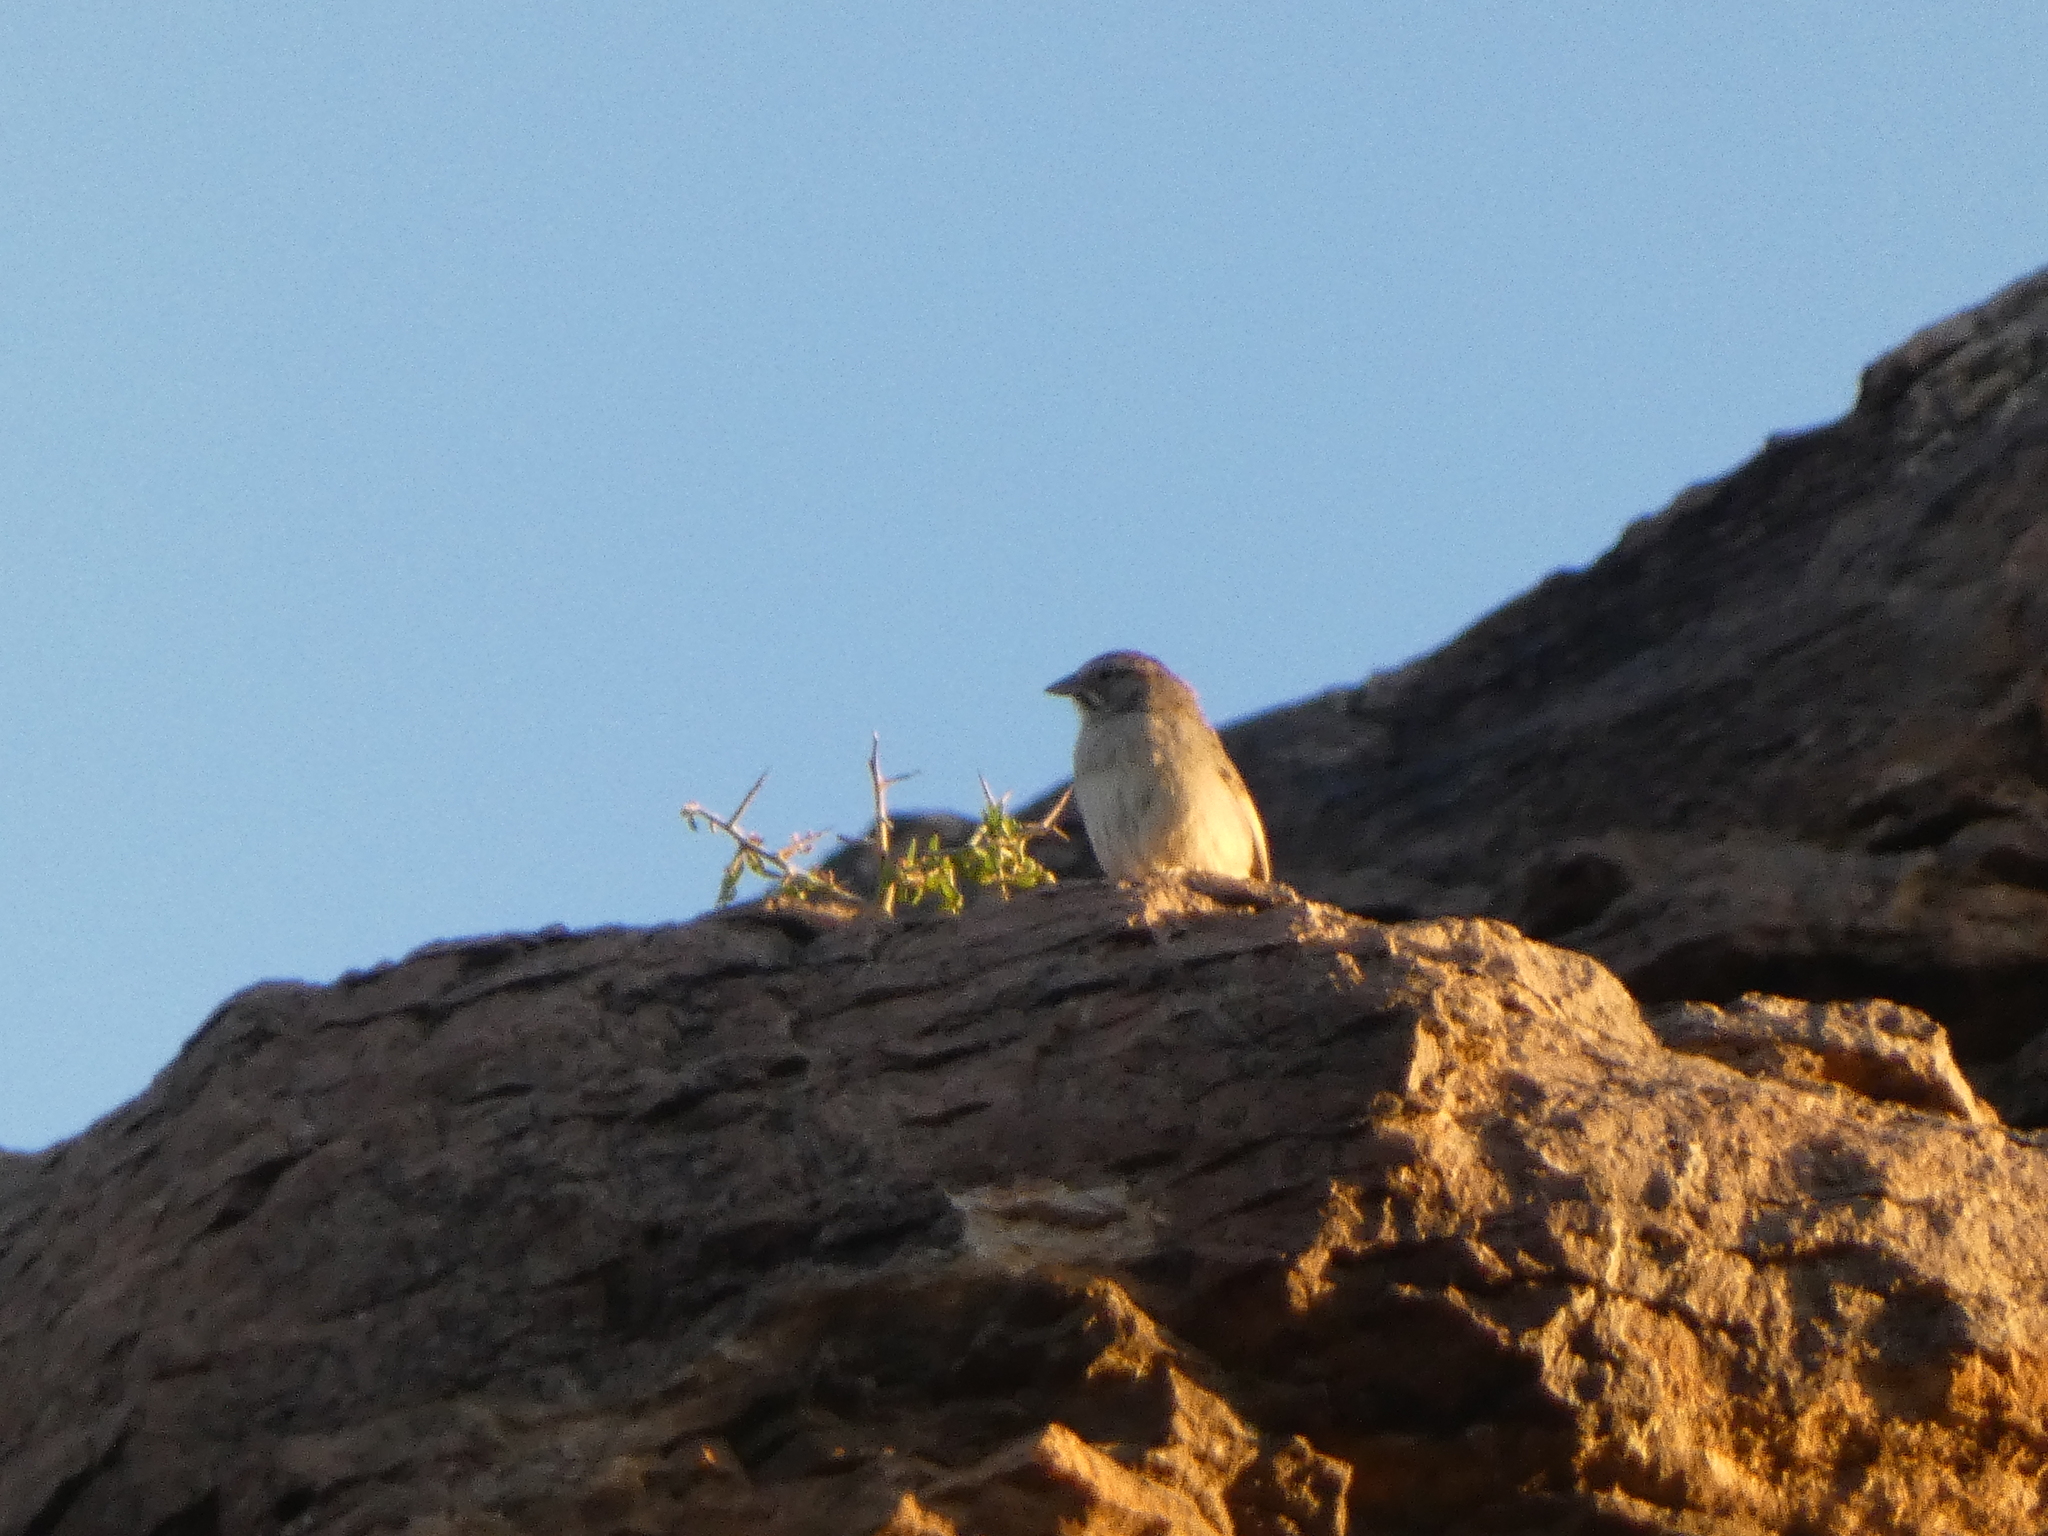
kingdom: Animalia
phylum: Chordata
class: Aves
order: Passeriformes
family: Passerellidae
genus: Aimophila
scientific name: Aimophila ruficeps
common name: Rufous-crowned sparrow
